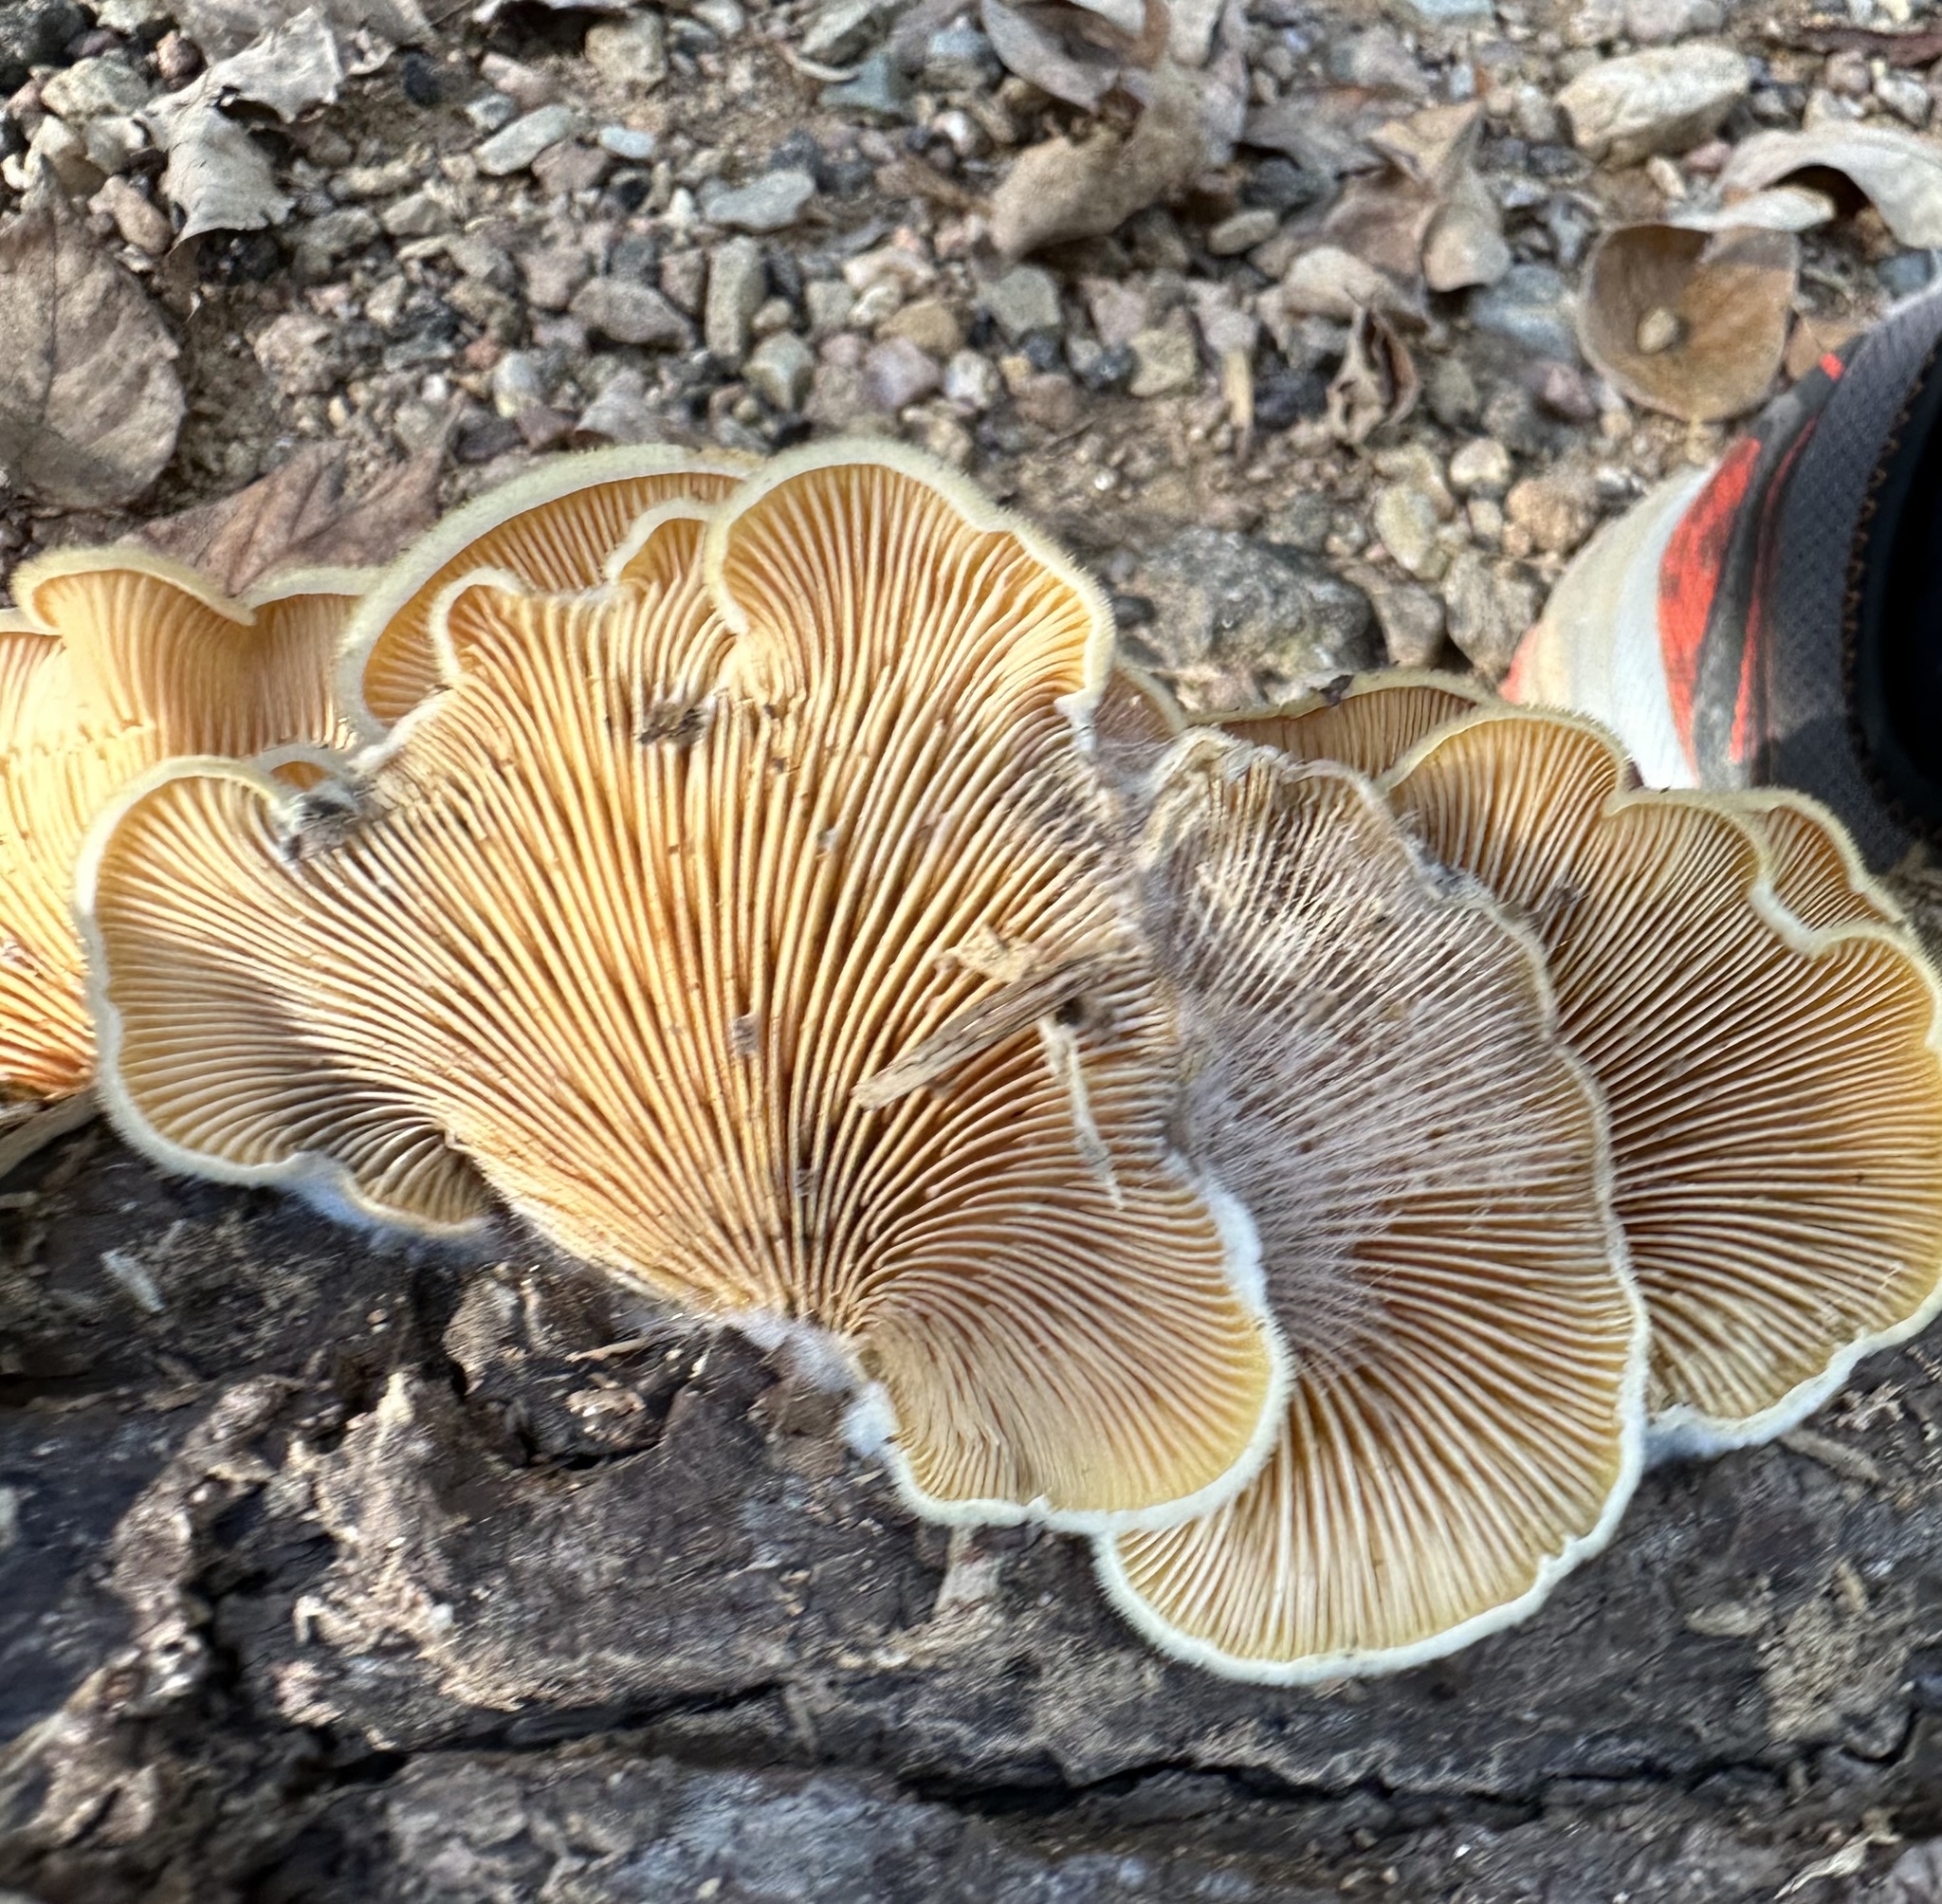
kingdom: Fungi
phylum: Basidiomycota
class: Agaricomycetes
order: Agaricales
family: Phyllotopsidaceae
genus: Phyllotopsis
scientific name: Phyllotopsis nidulans
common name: Orange mock oyster
